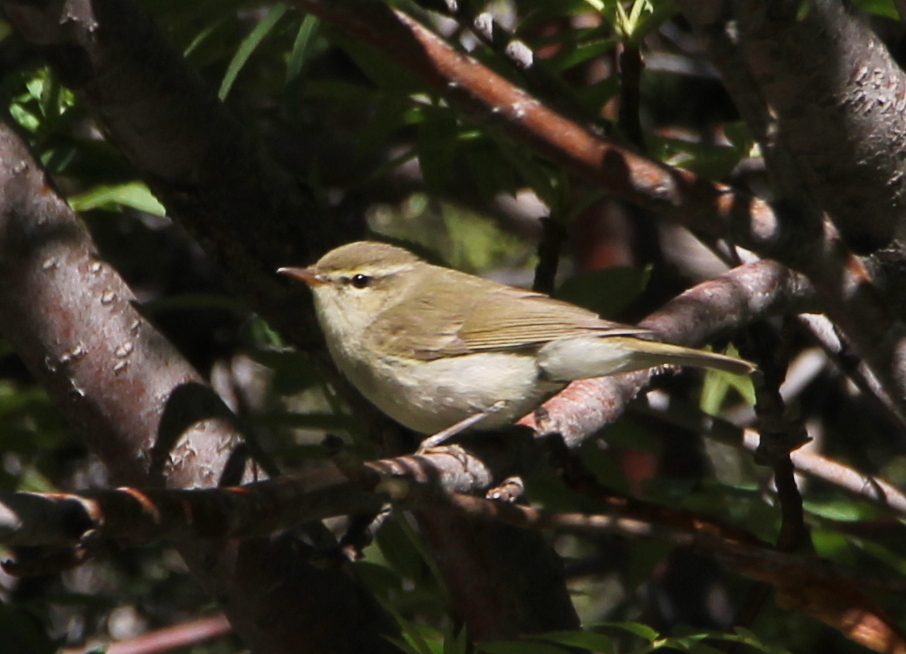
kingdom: Animalia
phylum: Chordata
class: Aves
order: Passeriformes
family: Phylloscopidae
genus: Phylloscopus
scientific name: Phylloscopus trochiloides
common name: Greenish warbler
